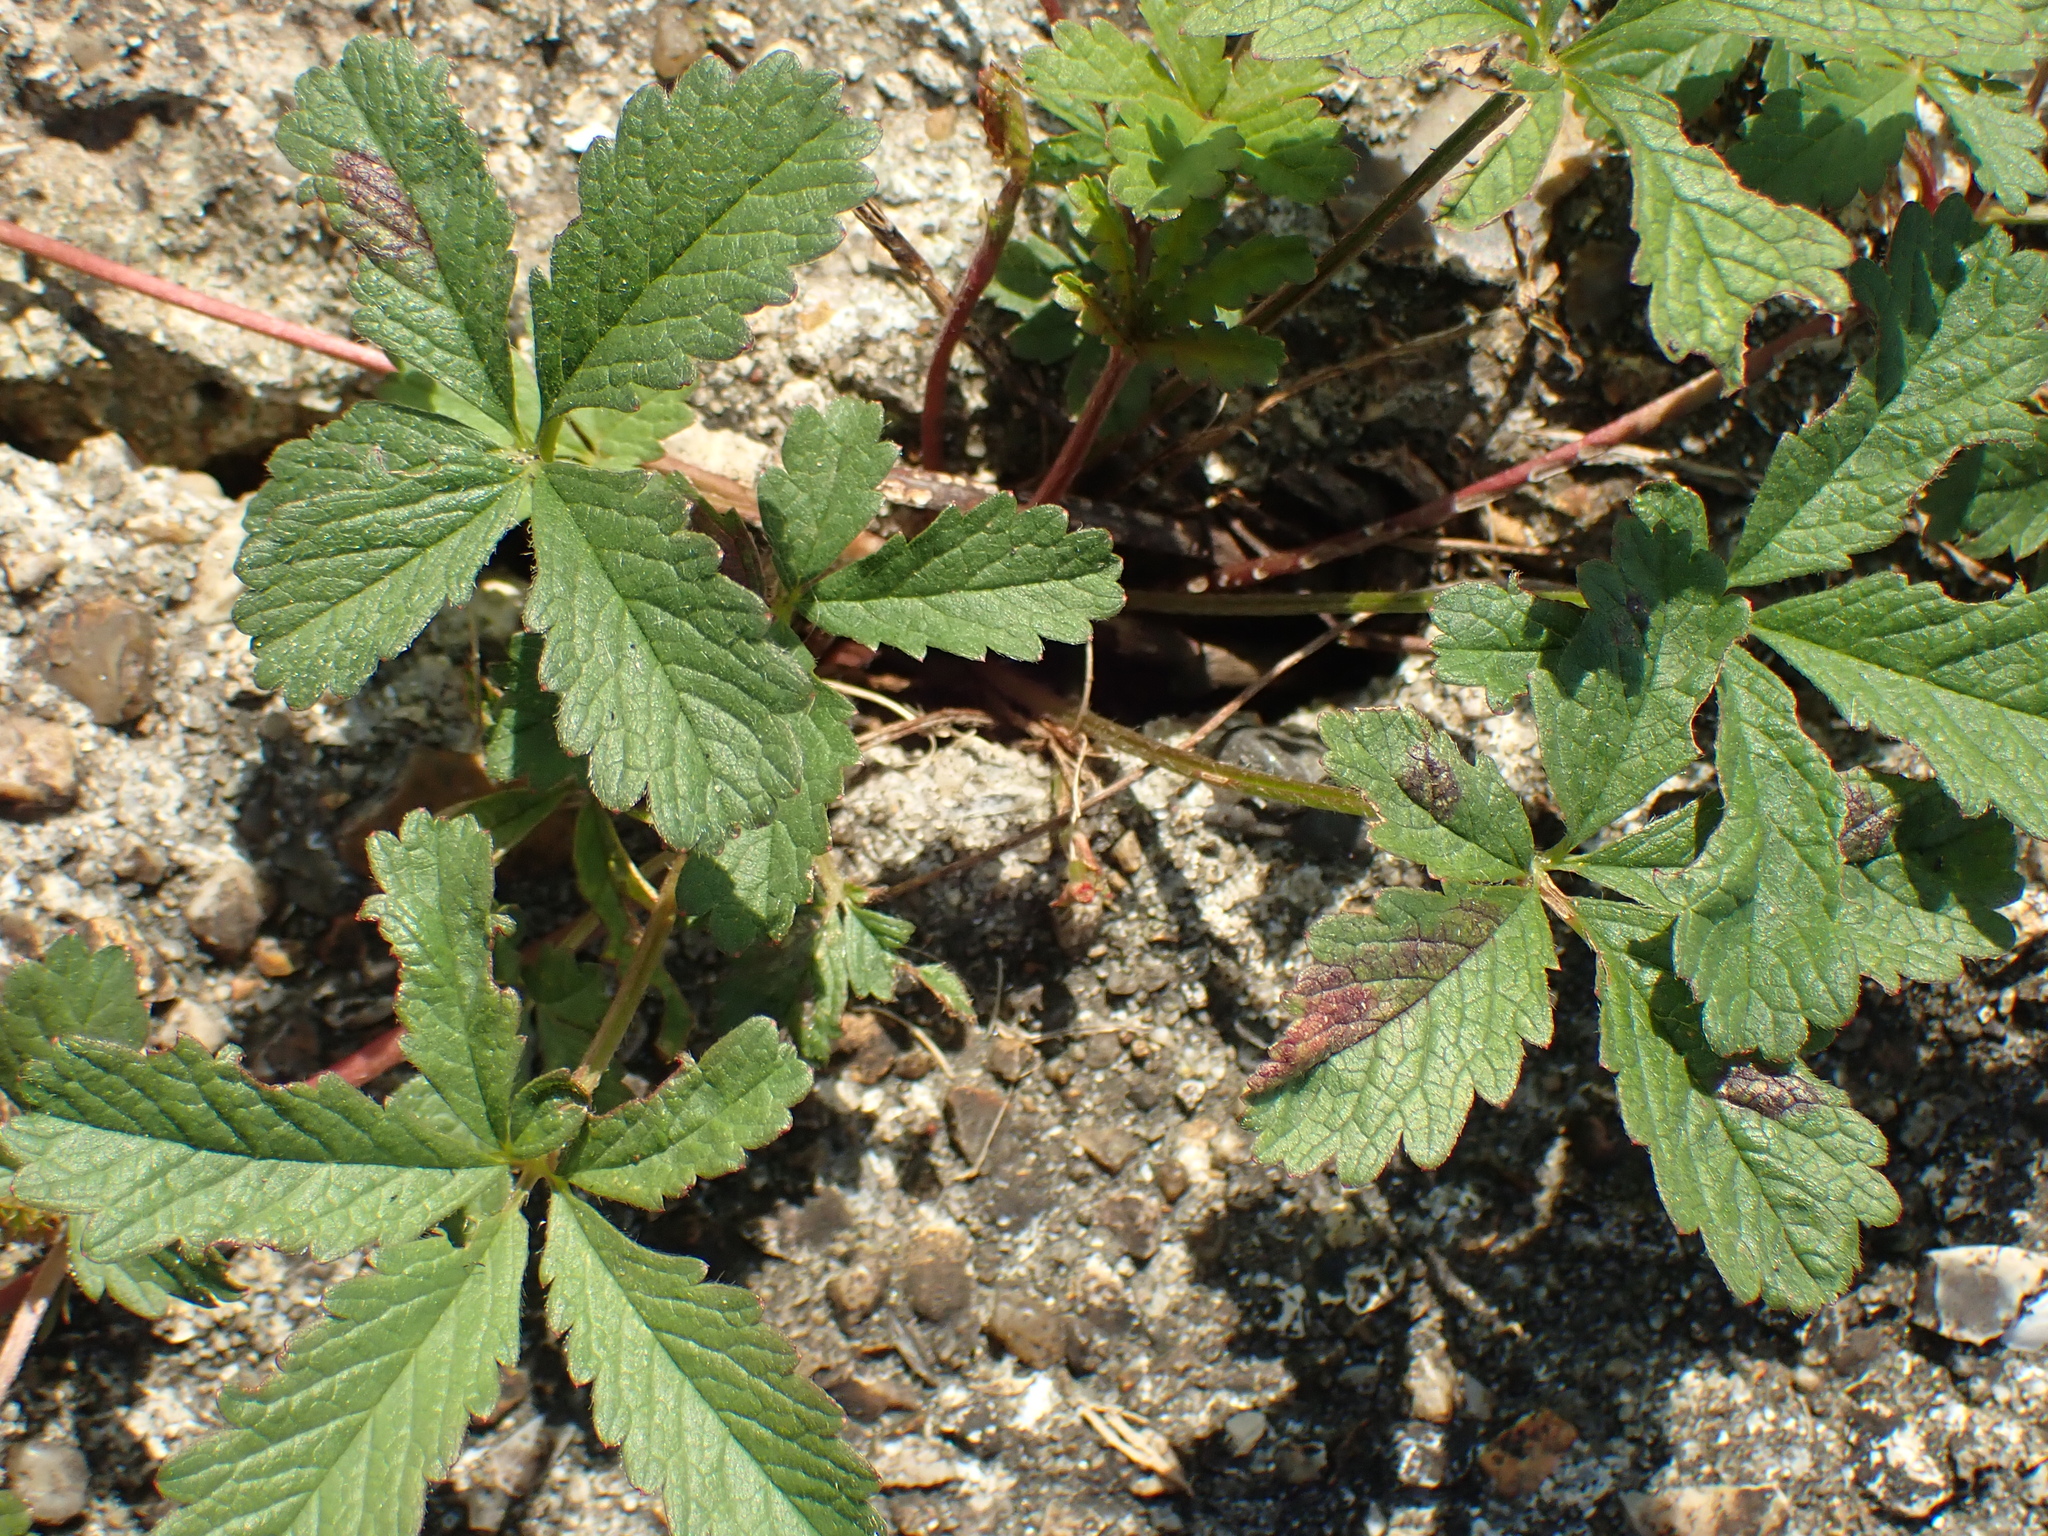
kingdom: Plantae
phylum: Tracheophyta
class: Magnoliopsida
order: Rosales
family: Rosaceae
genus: Potentilla
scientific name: Potentilla reptans
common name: Creeping cinquefoil
